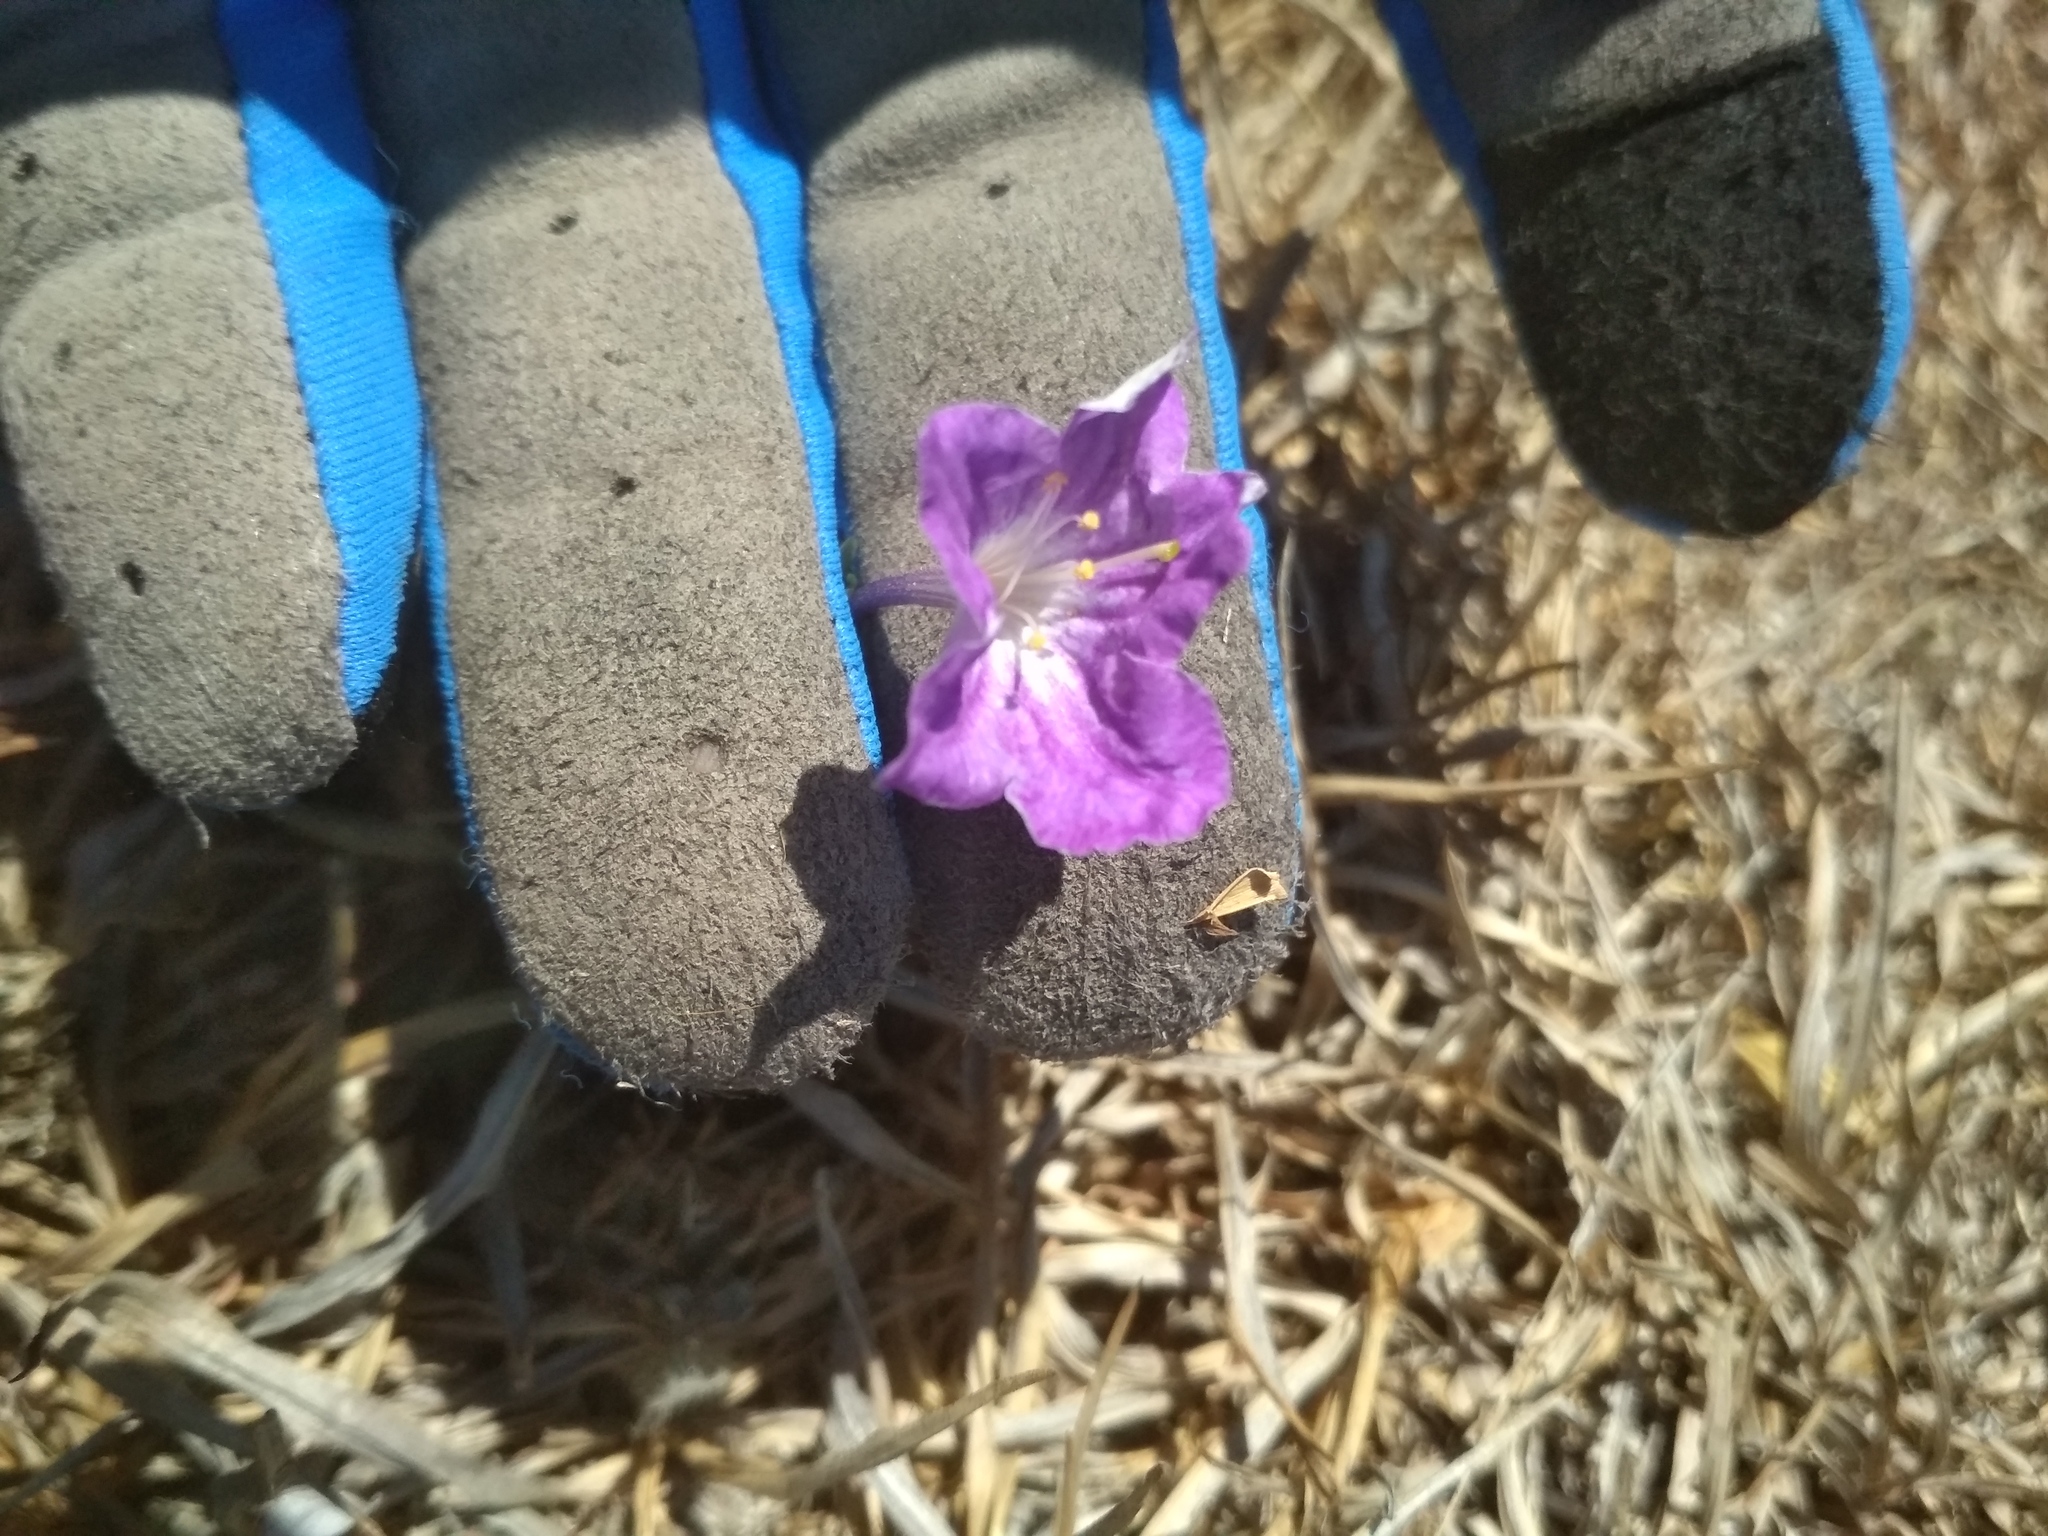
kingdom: Plantae
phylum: Tracheophyta
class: Magnoliopsida
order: Solanales
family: Solanaceae
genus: Salpiglossis
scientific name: Salpiglossis arniatera
